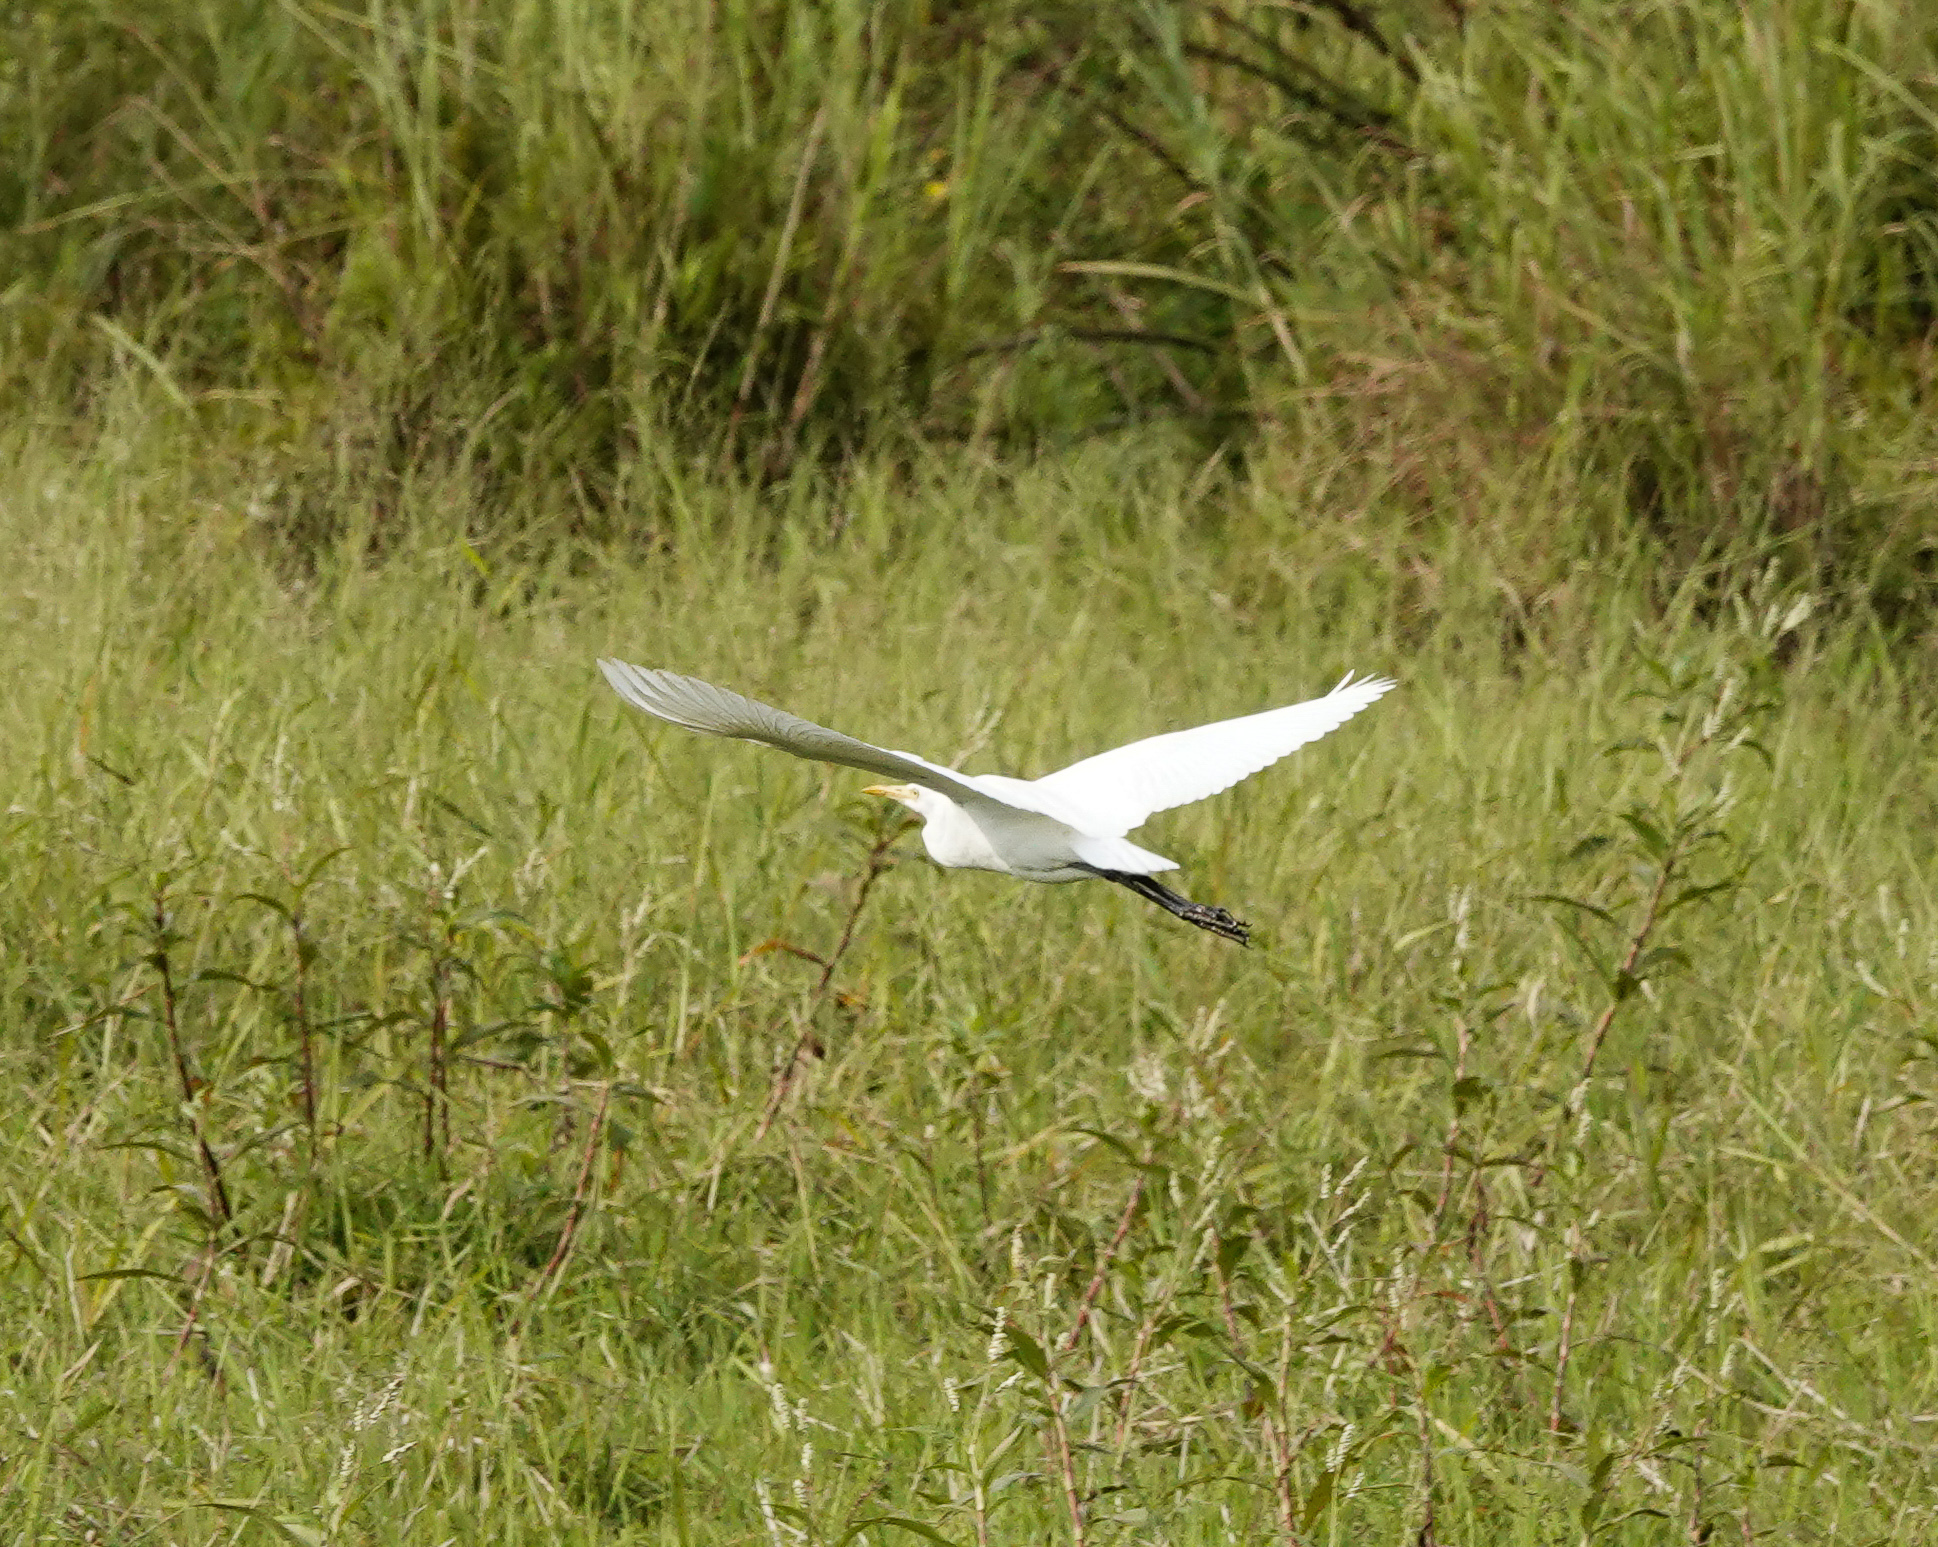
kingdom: Animalia
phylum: Chordata
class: Aves
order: Pelecaniformes
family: Ardeidae
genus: Bubulcus
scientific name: Bubulcus coromandus
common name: Eastern cattle egret
